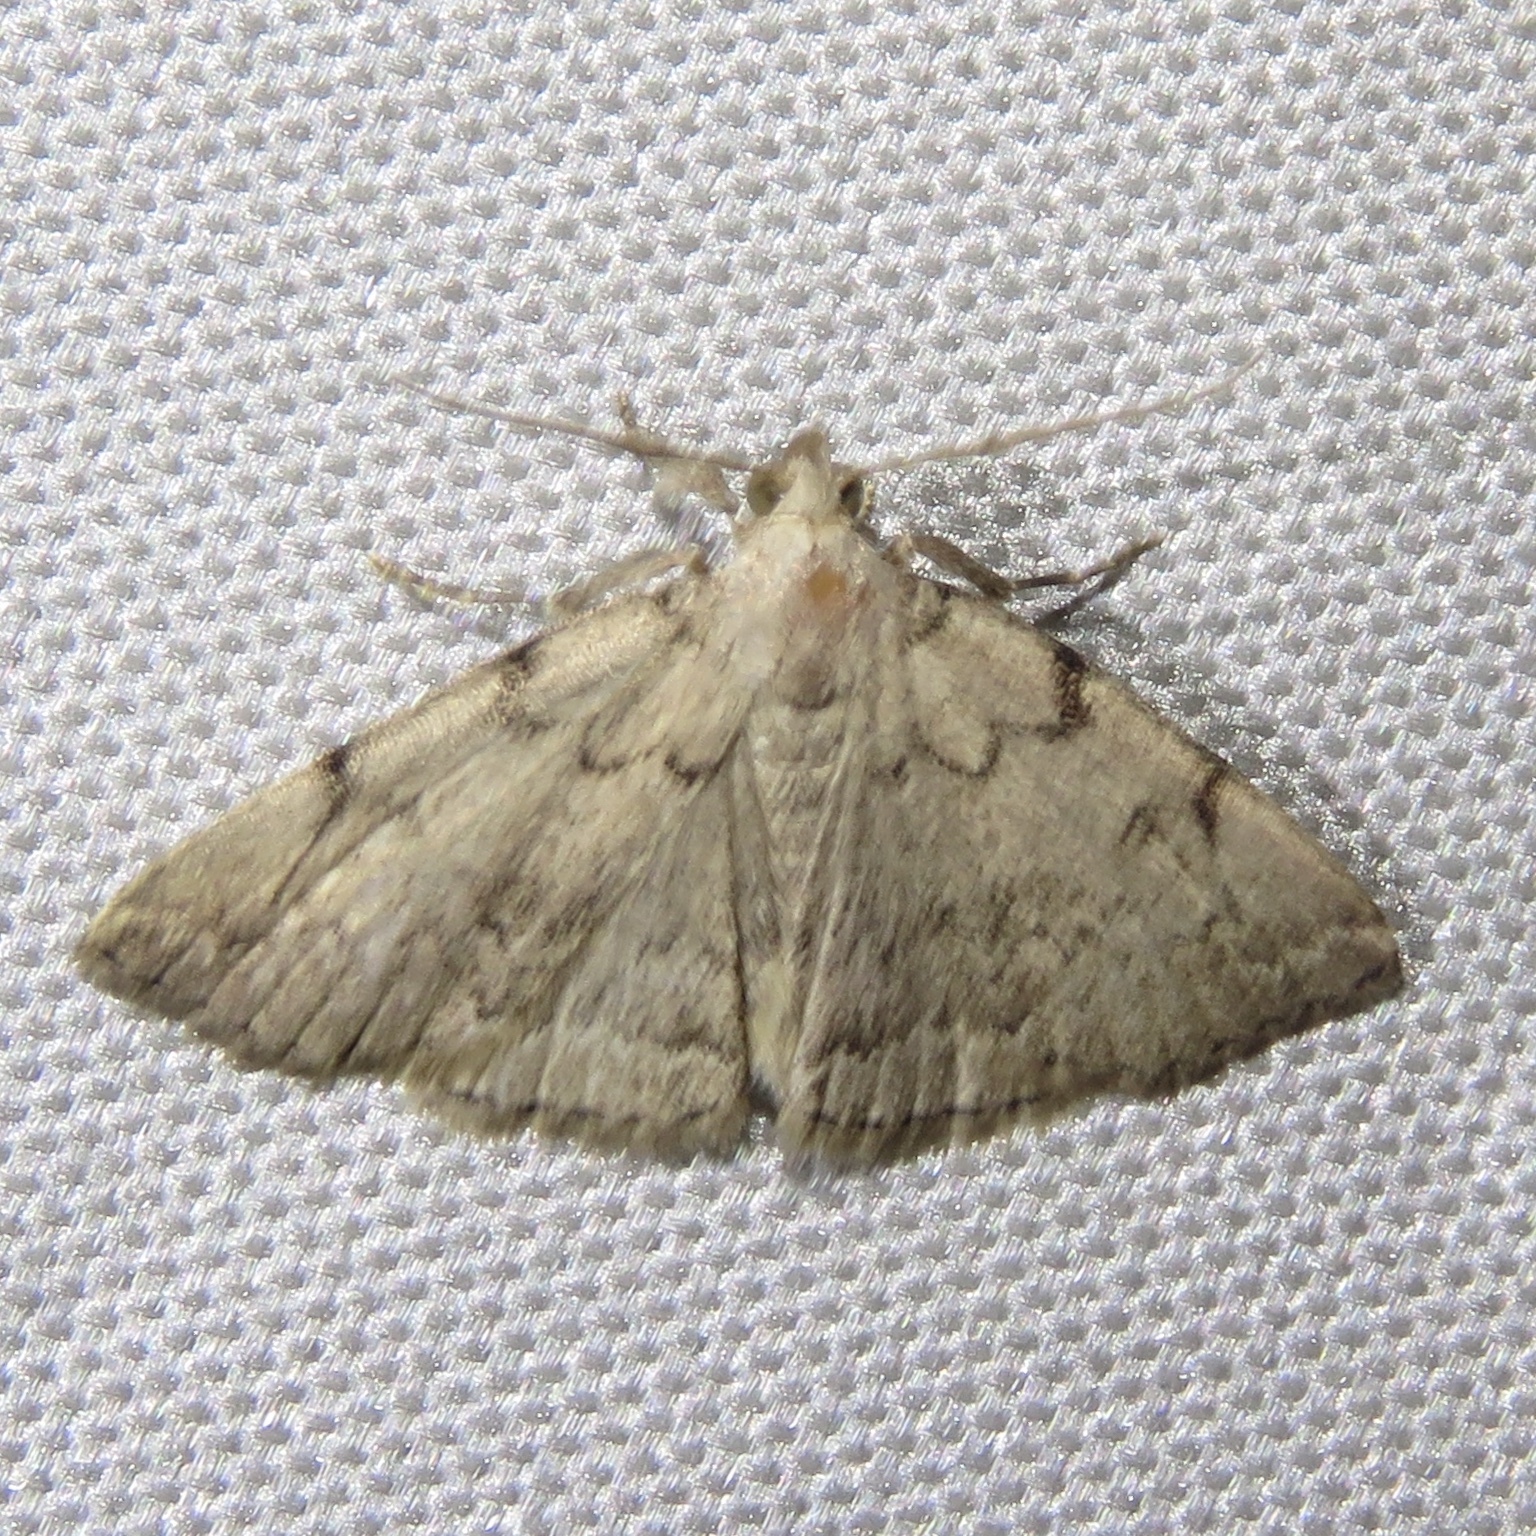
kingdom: Animalia
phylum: Arthropoda
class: Insecta
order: Lepidoptera
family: Erebidae
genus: Zanclognatha
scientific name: Zanclognatha theralis
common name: Flagged fan-foot
